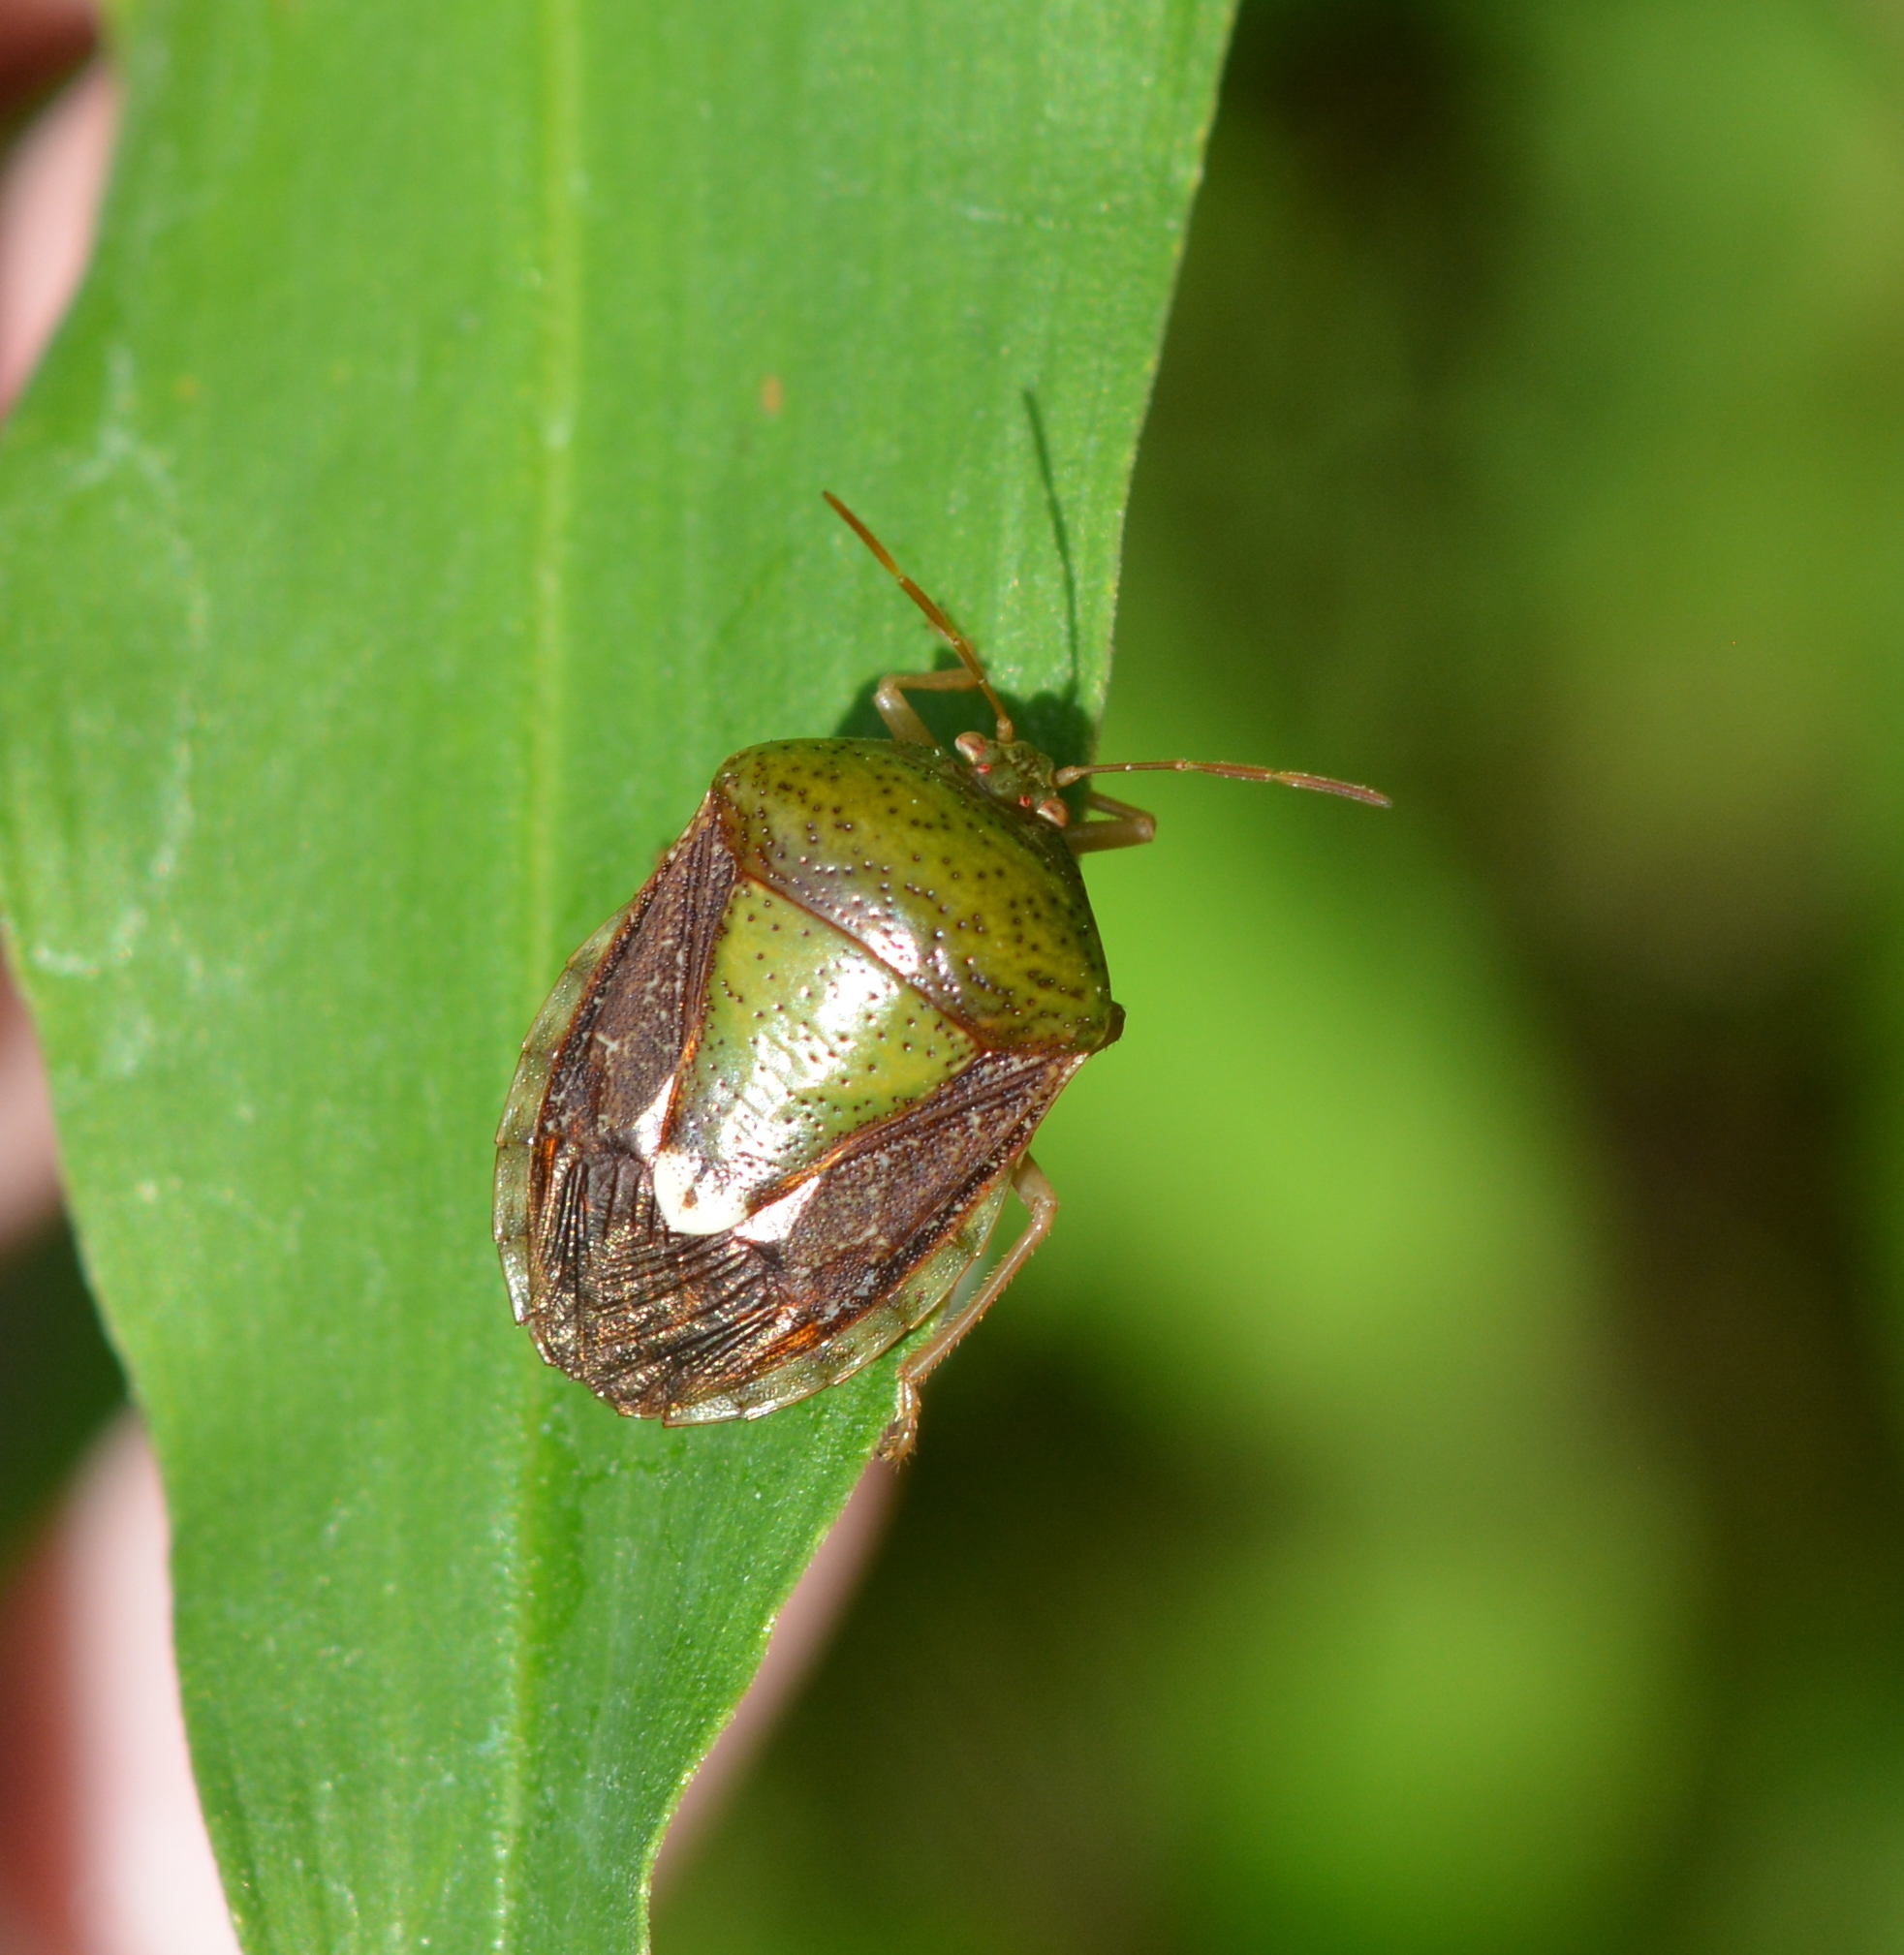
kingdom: Animalia
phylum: Arthropoda
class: Insecta
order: Hemiptera
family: Pentatomidae
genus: Edessa
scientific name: Edessa bifida
